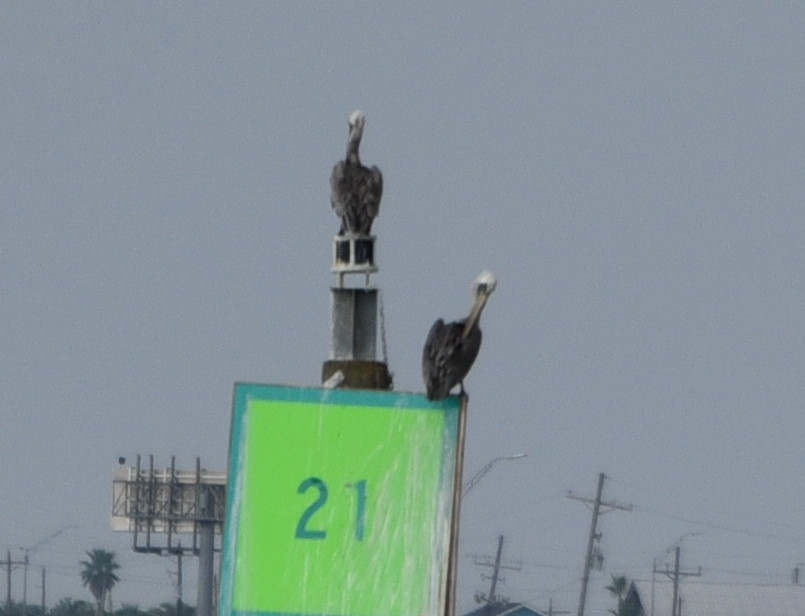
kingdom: Animalia
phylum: Chordata
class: Aves
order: Pelecaniformes
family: Pelecanidae
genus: Pelecanus
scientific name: Pelecanus occidentalis
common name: Brown pelican
